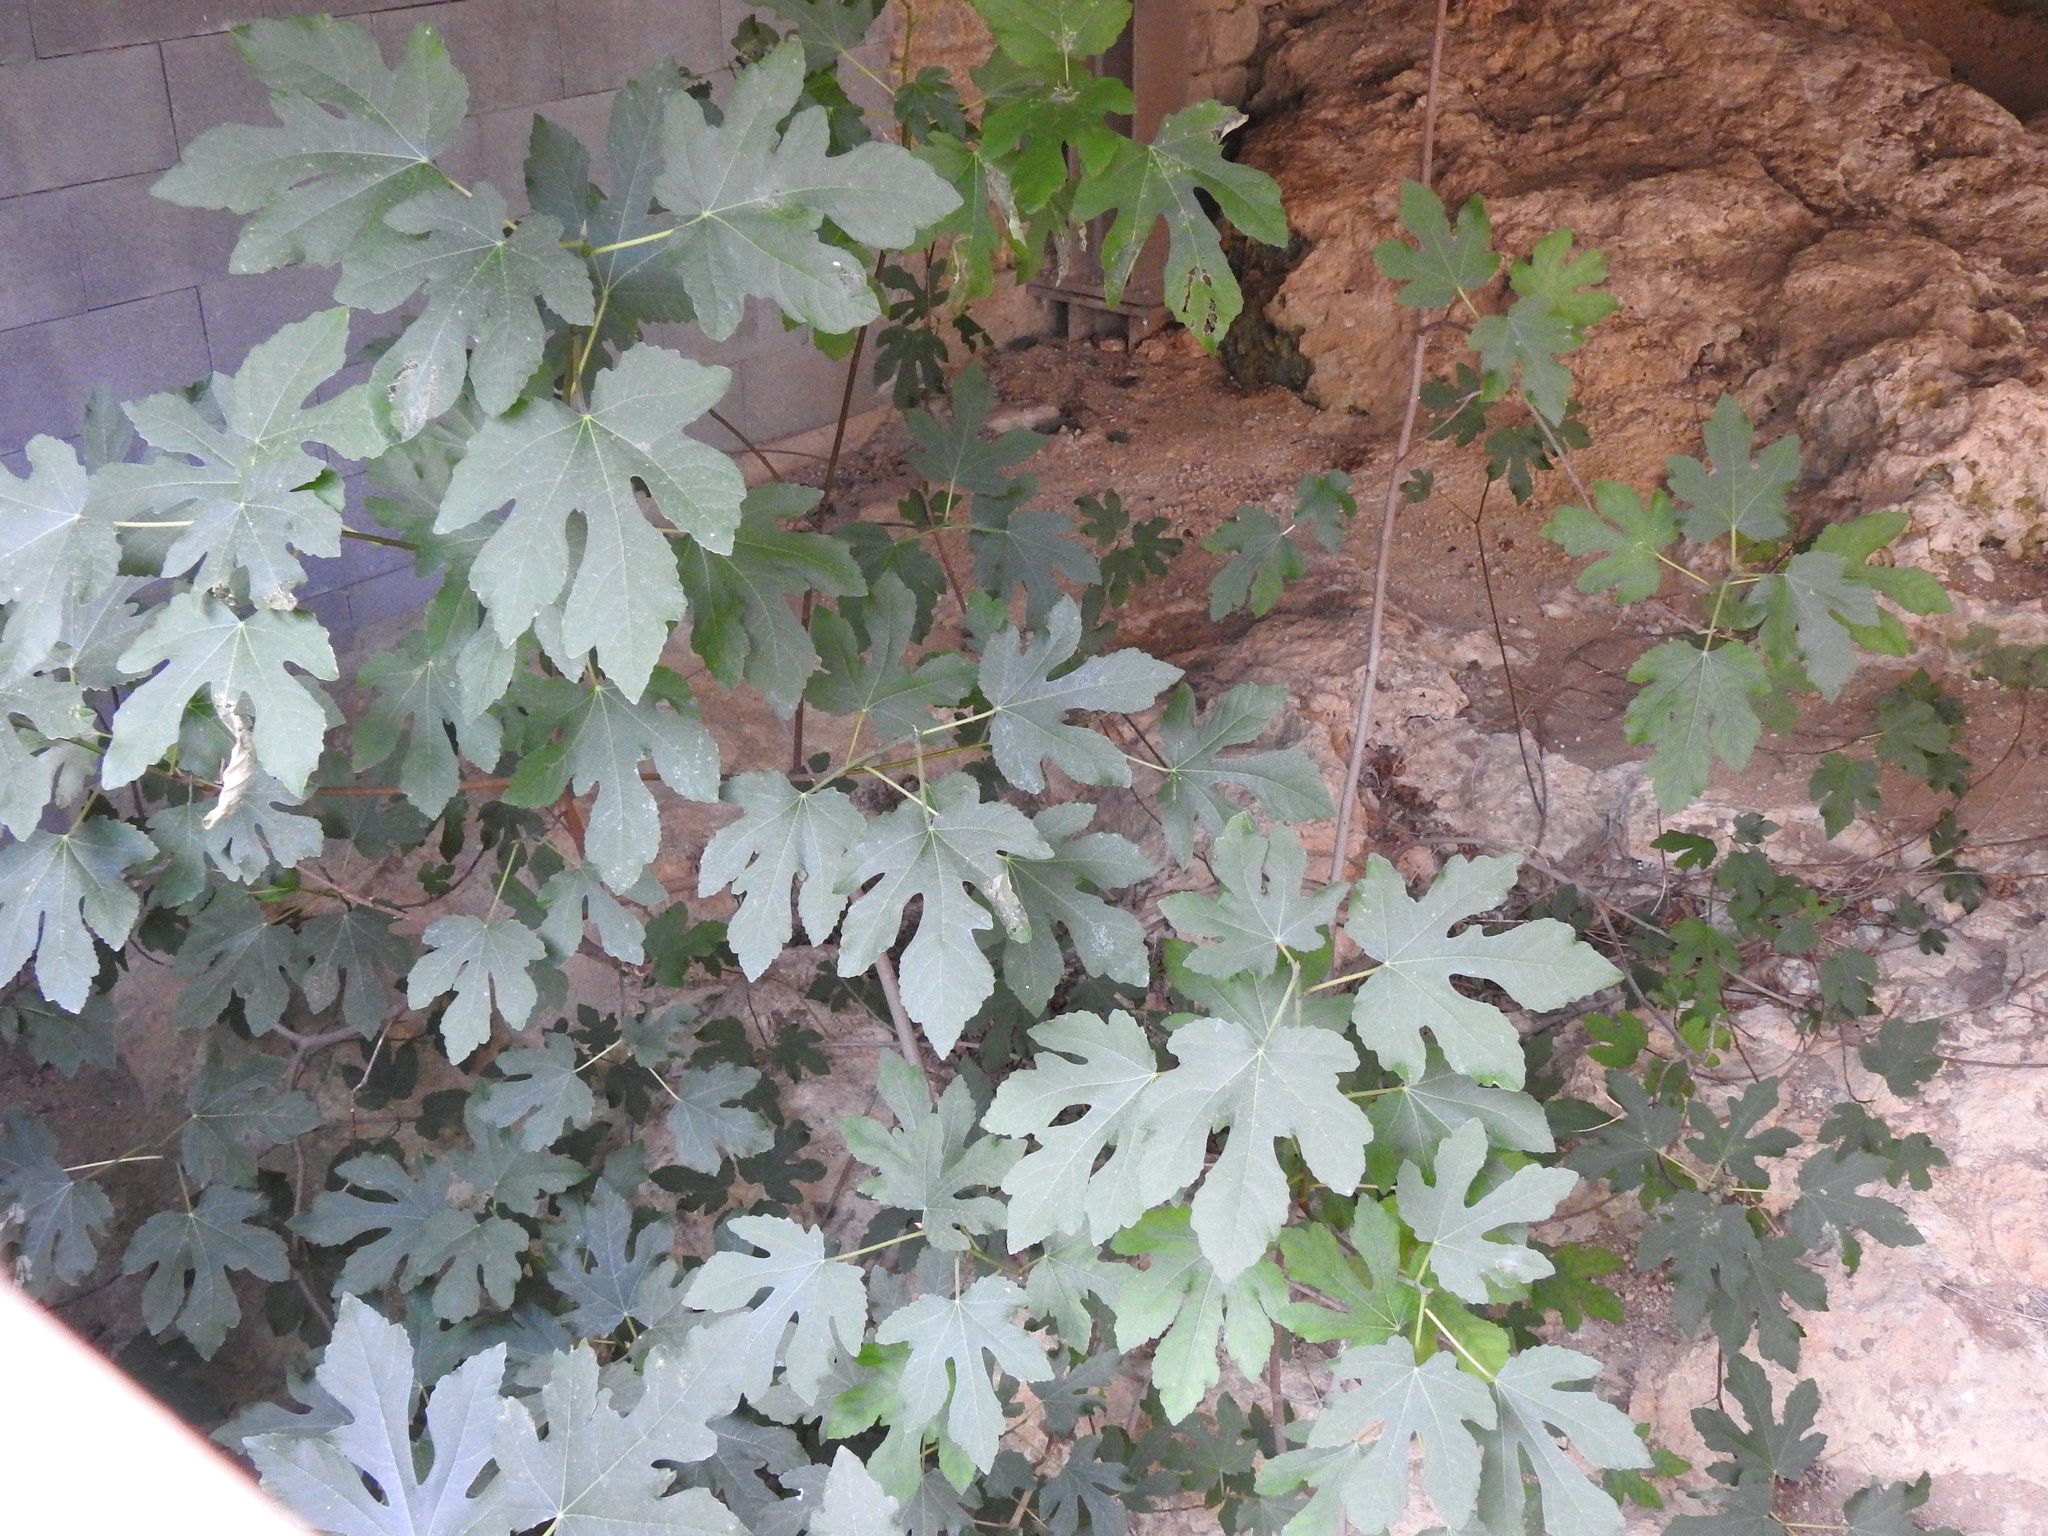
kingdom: Plantae
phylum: Tracheophyta
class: Magnoliopsida
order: Rosales
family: Moraceae
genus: Ficus
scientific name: Ficus carica
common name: Fig
